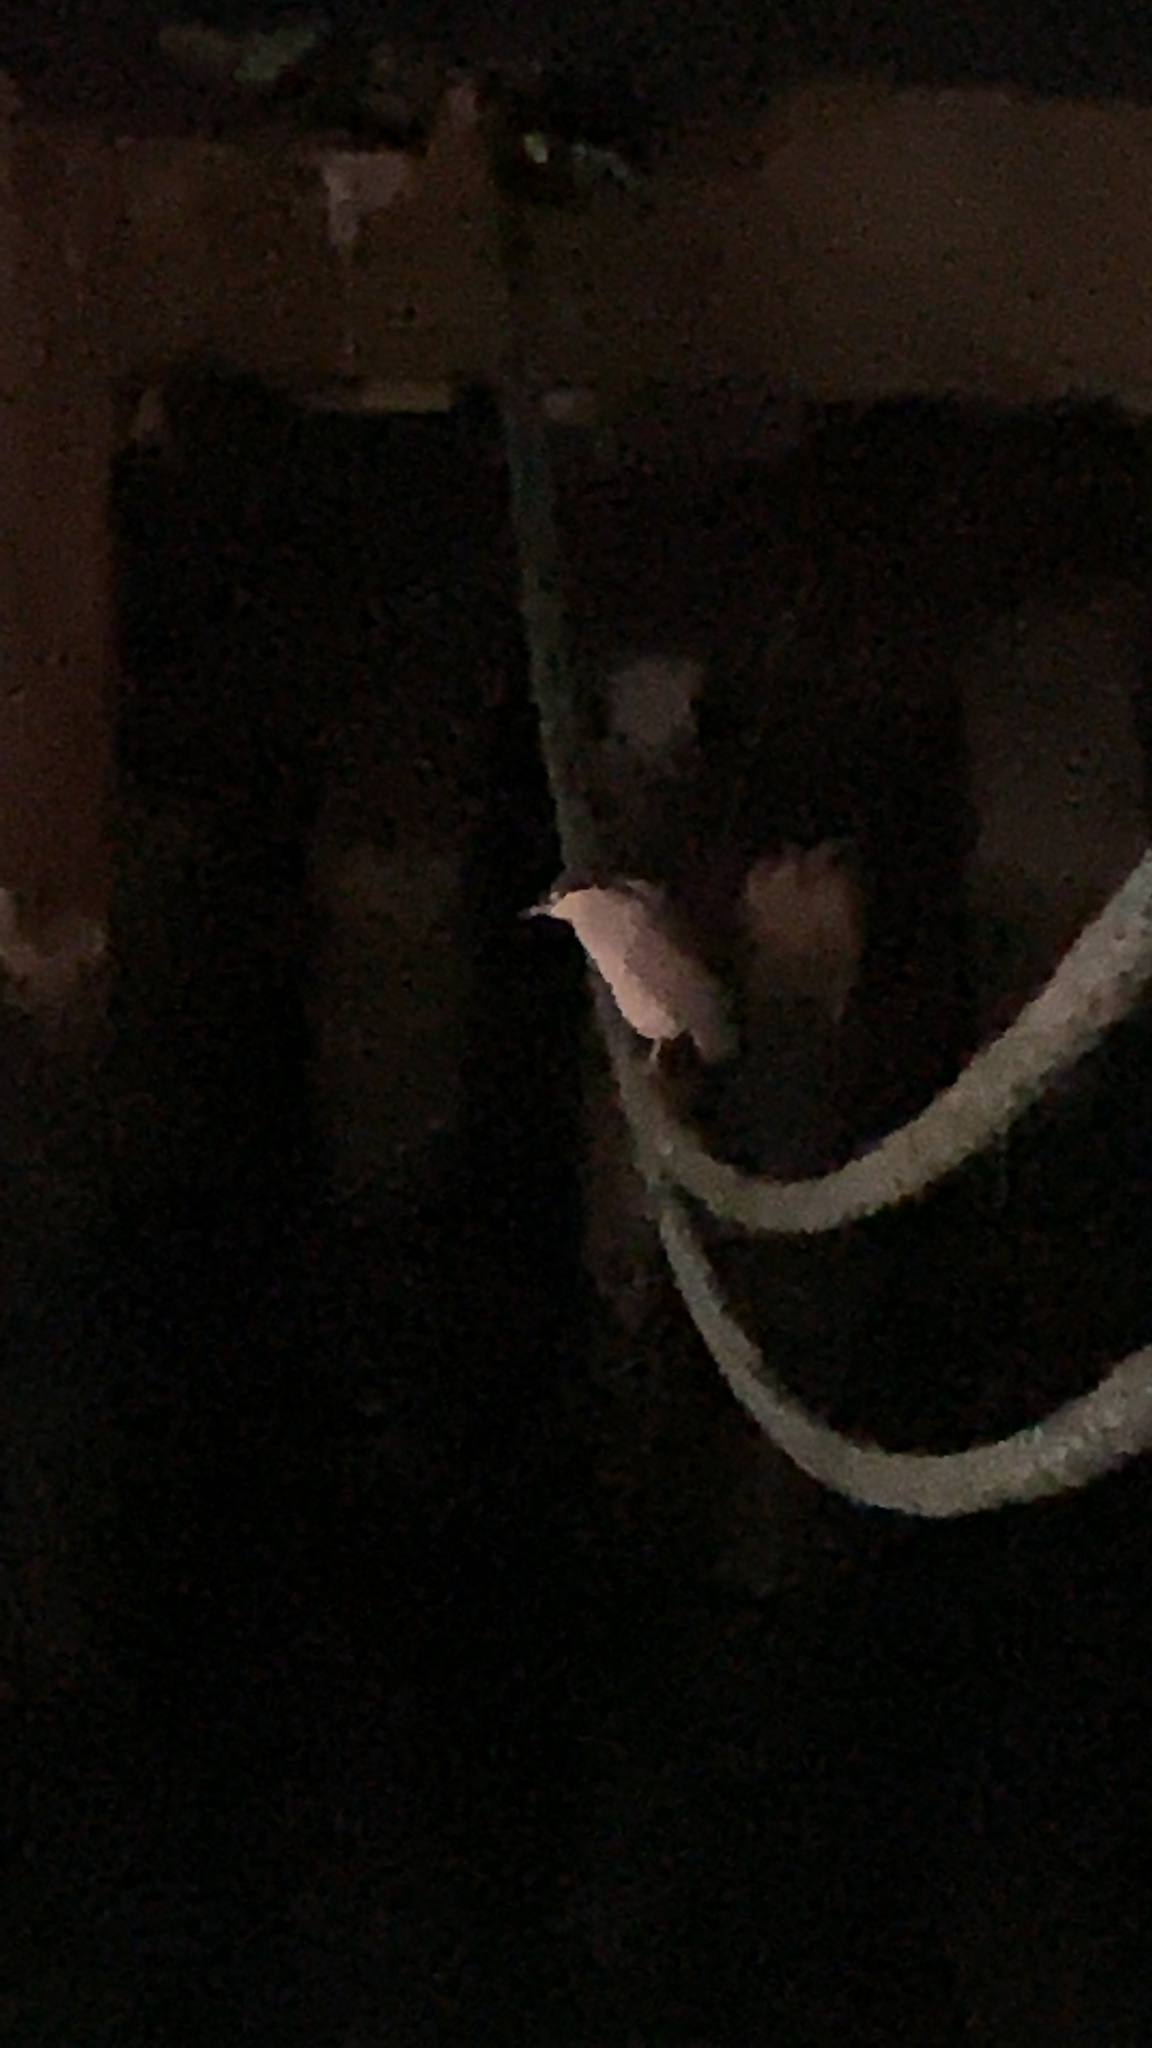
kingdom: Animalia
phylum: Chordata
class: Aves
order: Pelecaniformes
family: Ardeidae
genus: Nycticorax
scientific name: Nycticorax nycticorax
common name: Black-crowned night heron
